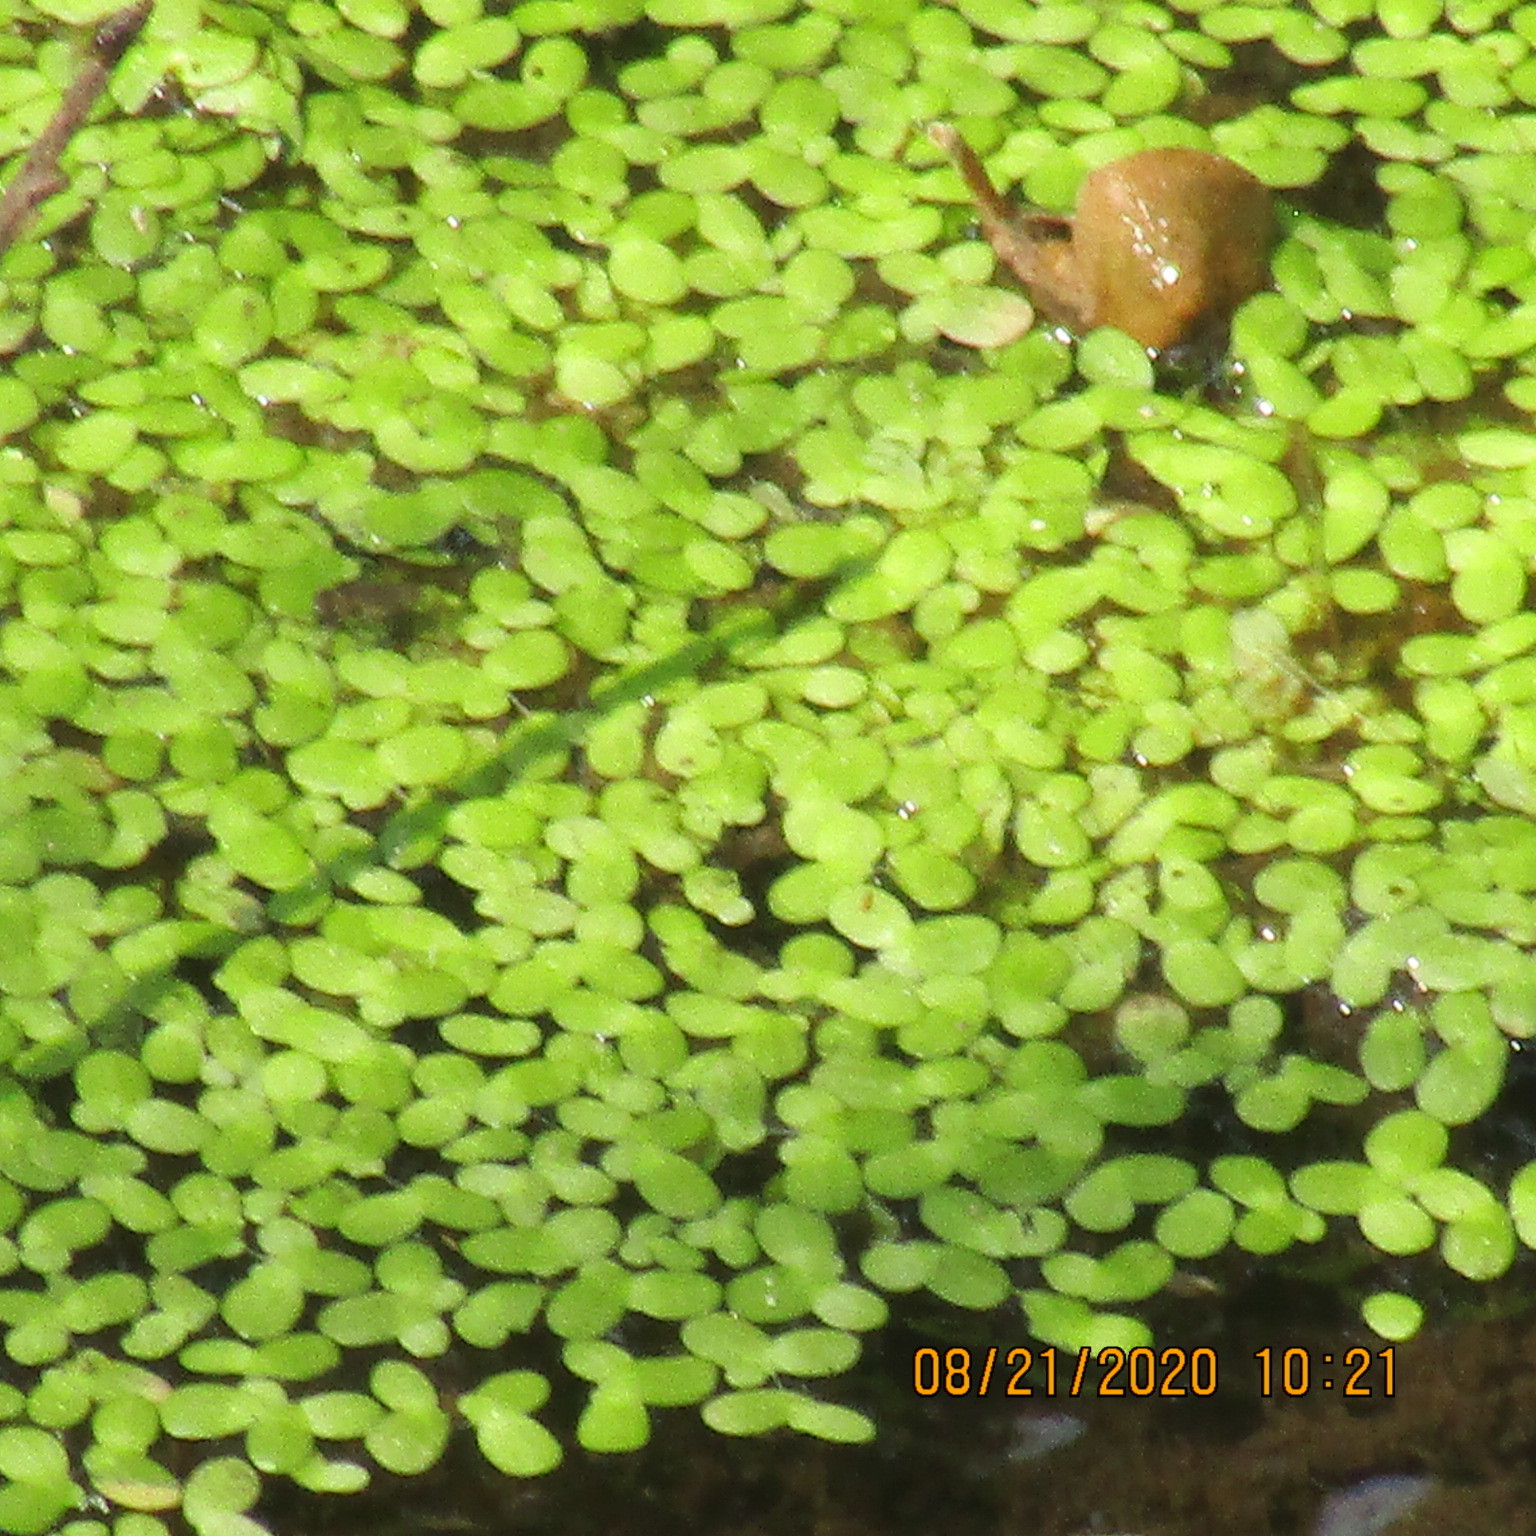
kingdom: Plantae
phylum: Tracheophyta
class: Liliopsida
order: Alismatales
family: Araceae
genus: Lemna
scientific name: Lemna minor
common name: Common duckweed
